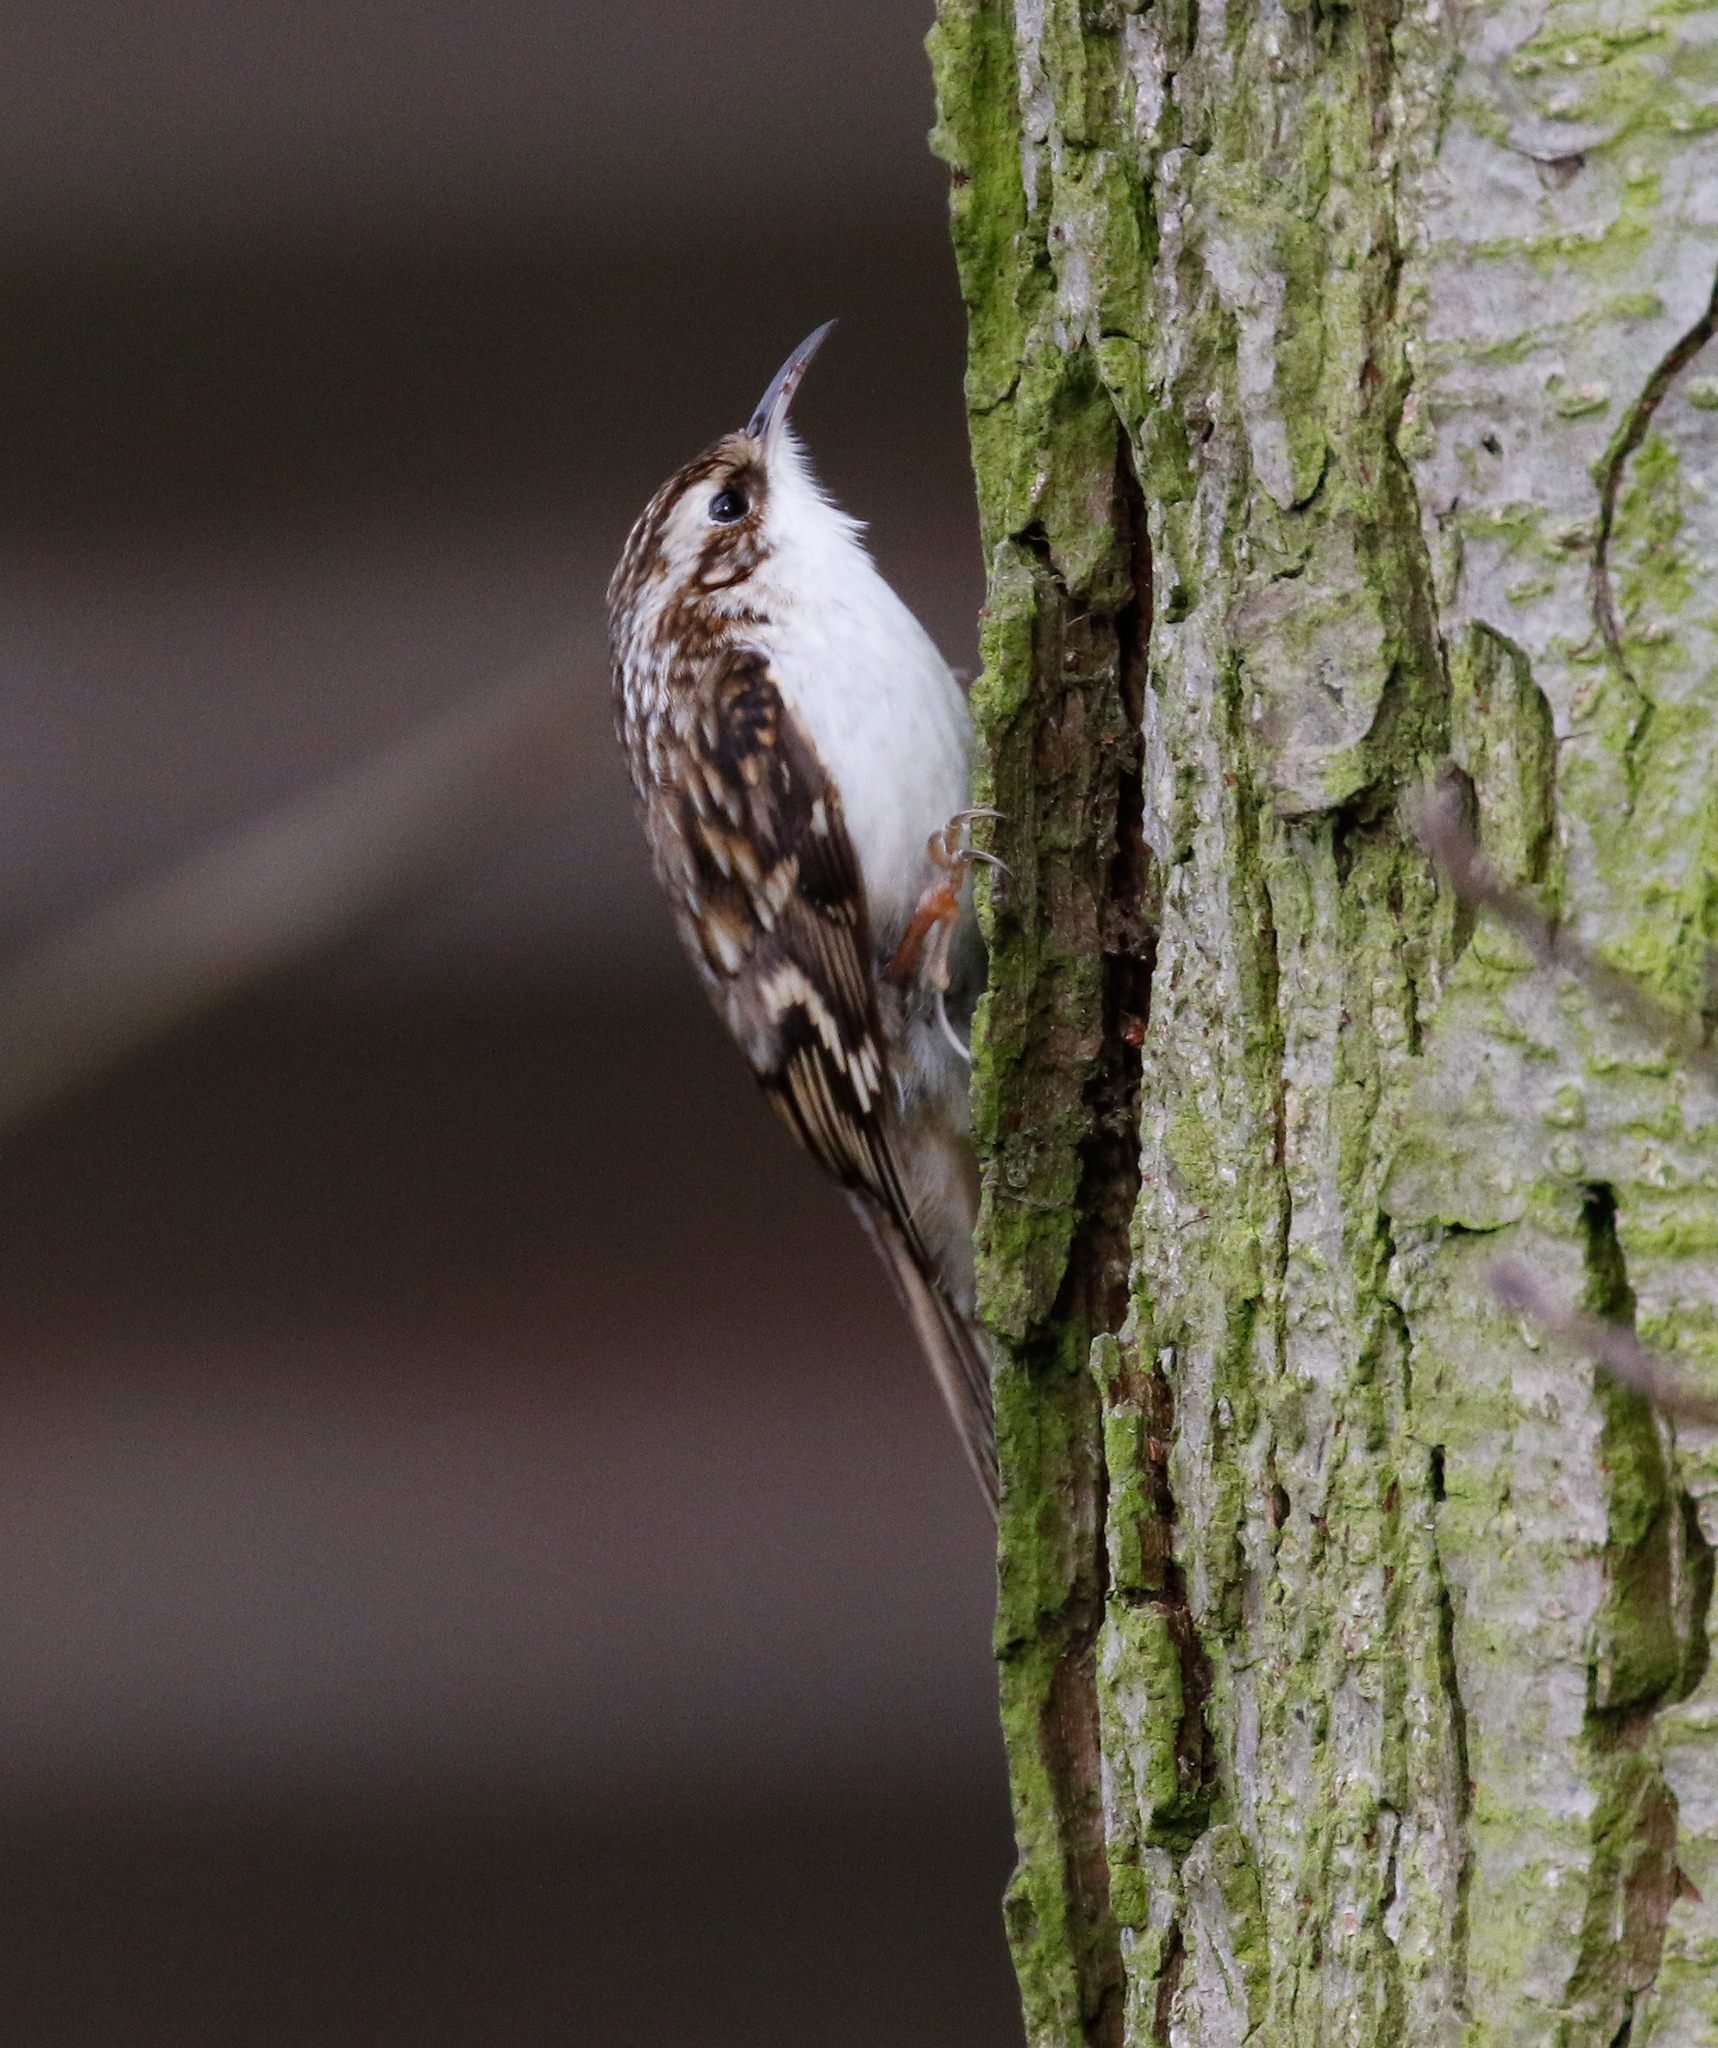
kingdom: Animalia
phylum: Chordata
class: Aves
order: Passeriformes
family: Certhiidae
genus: Certhia
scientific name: Certhia familiaris
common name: Eurasian treecreeper
